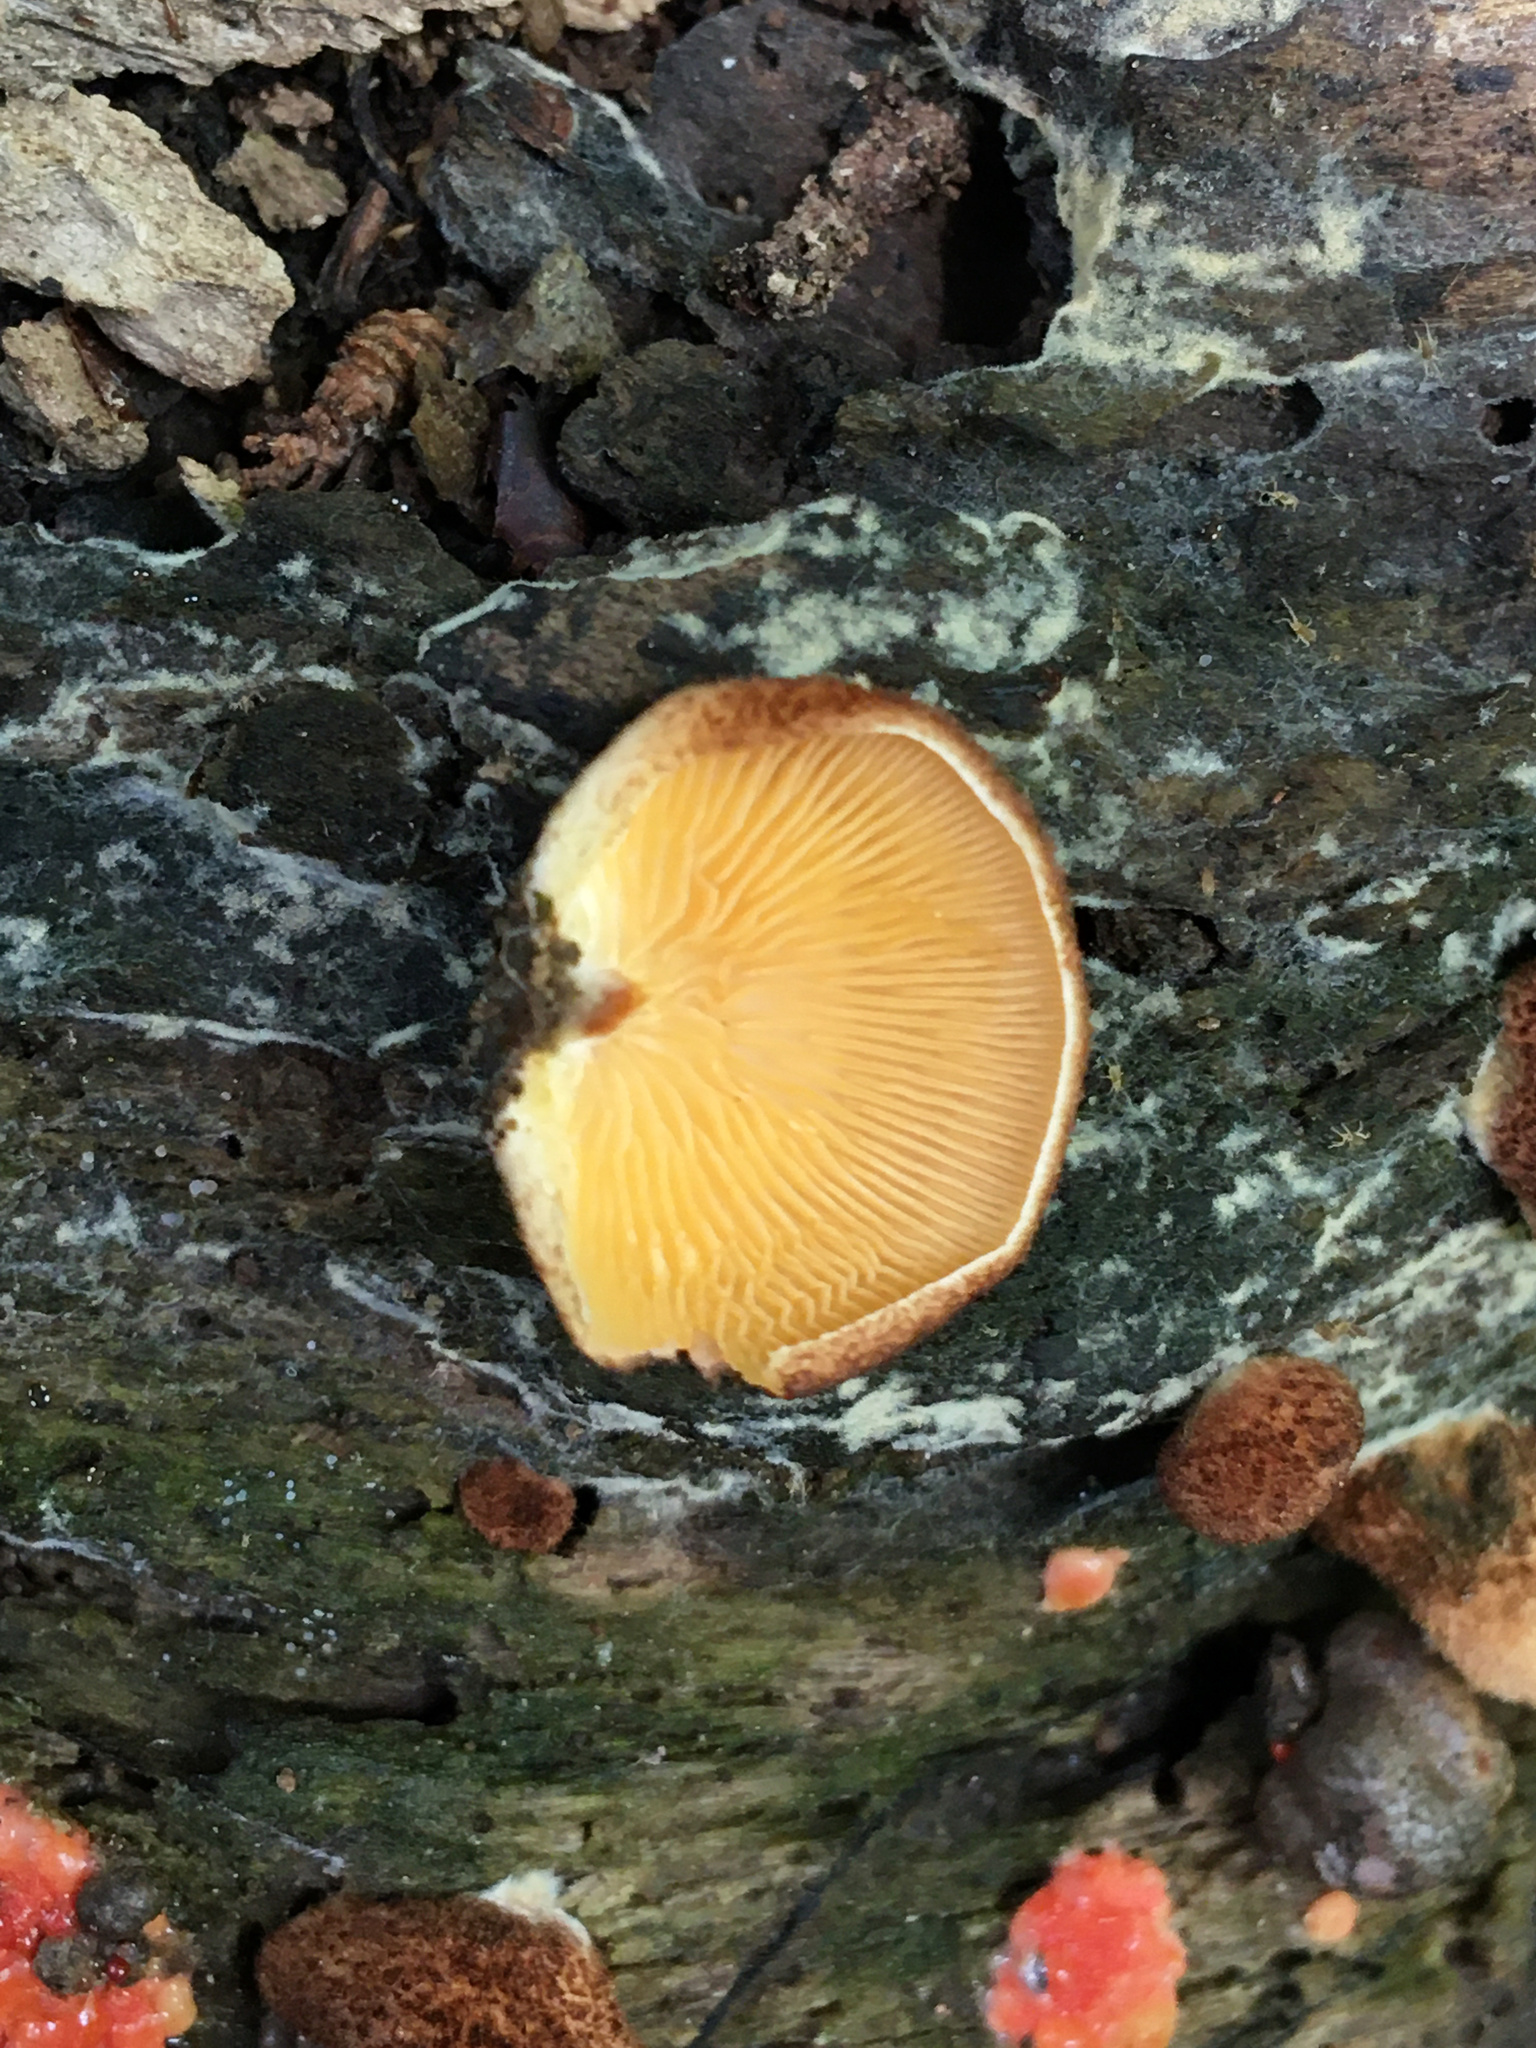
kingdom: Fungi
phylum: Basidiomycota
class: Agaricomycetes
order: Agaricales
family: Crepidotaceae
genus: Crepidotus
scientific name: Crepidotus crocophyllus
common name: Saffron oysterling
